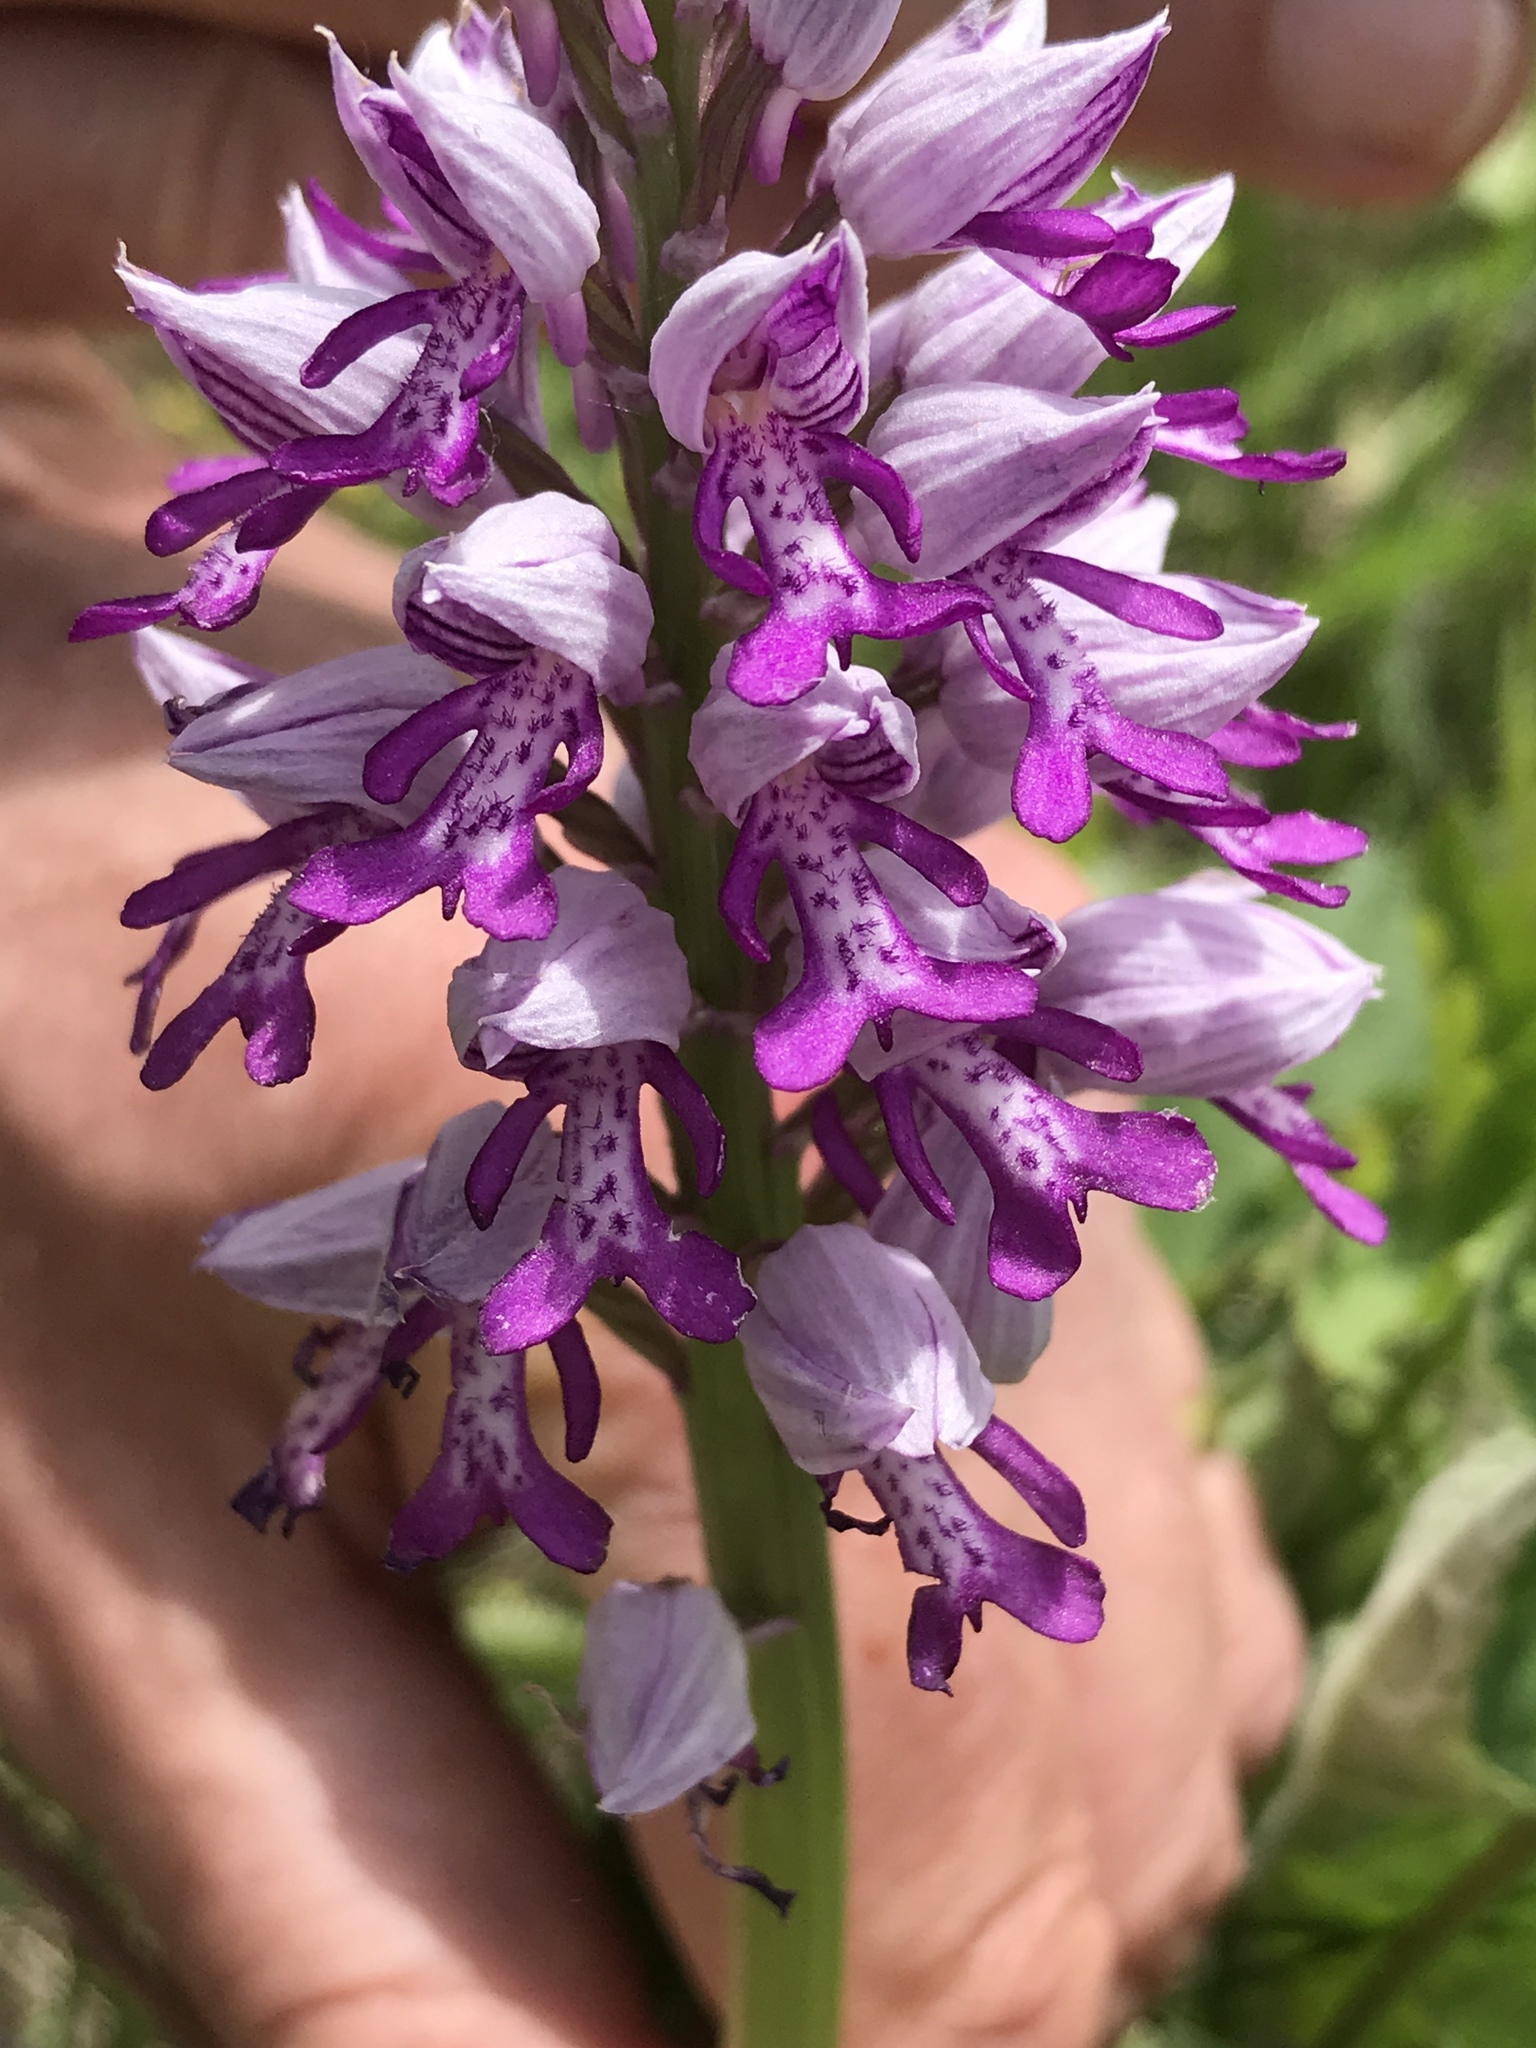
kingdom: Plantae
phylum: Tracheophyta
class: Liliopsida
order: Asparagales
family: Orchidaceae
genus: Orchis
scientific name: Orchis militaris
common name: Military orchid
